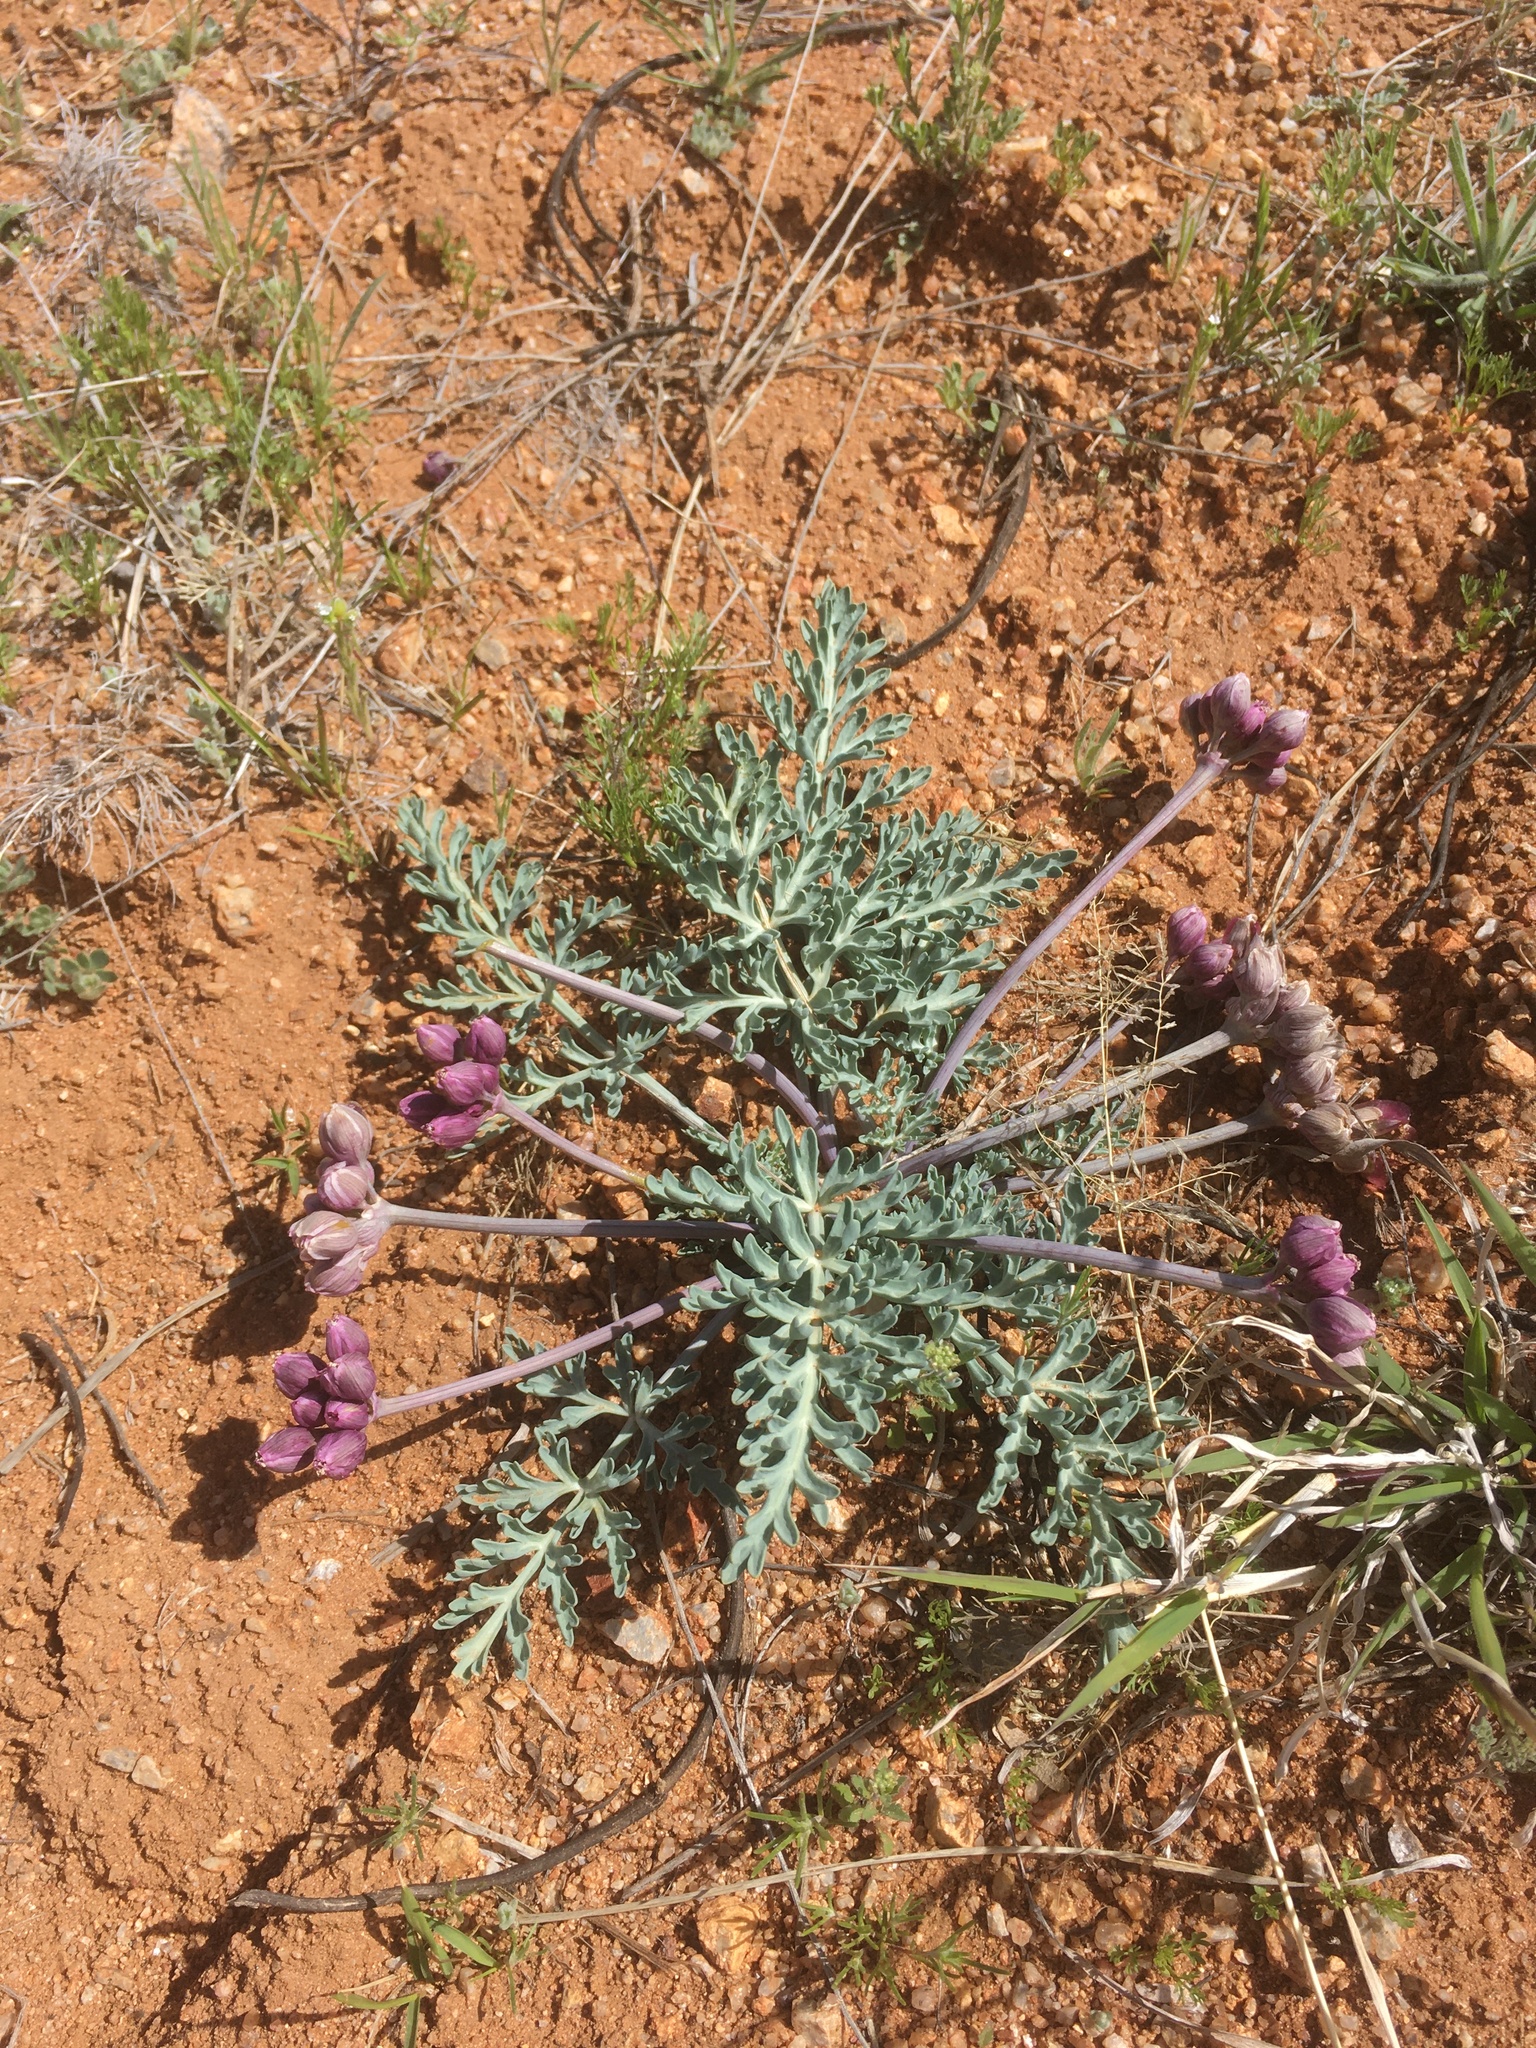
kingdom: Plantae
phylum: Tracheophyta
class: Magnoliopsida
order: Apiales
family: Apiaceae
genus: Vesper
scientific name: Vesper multinervatus
